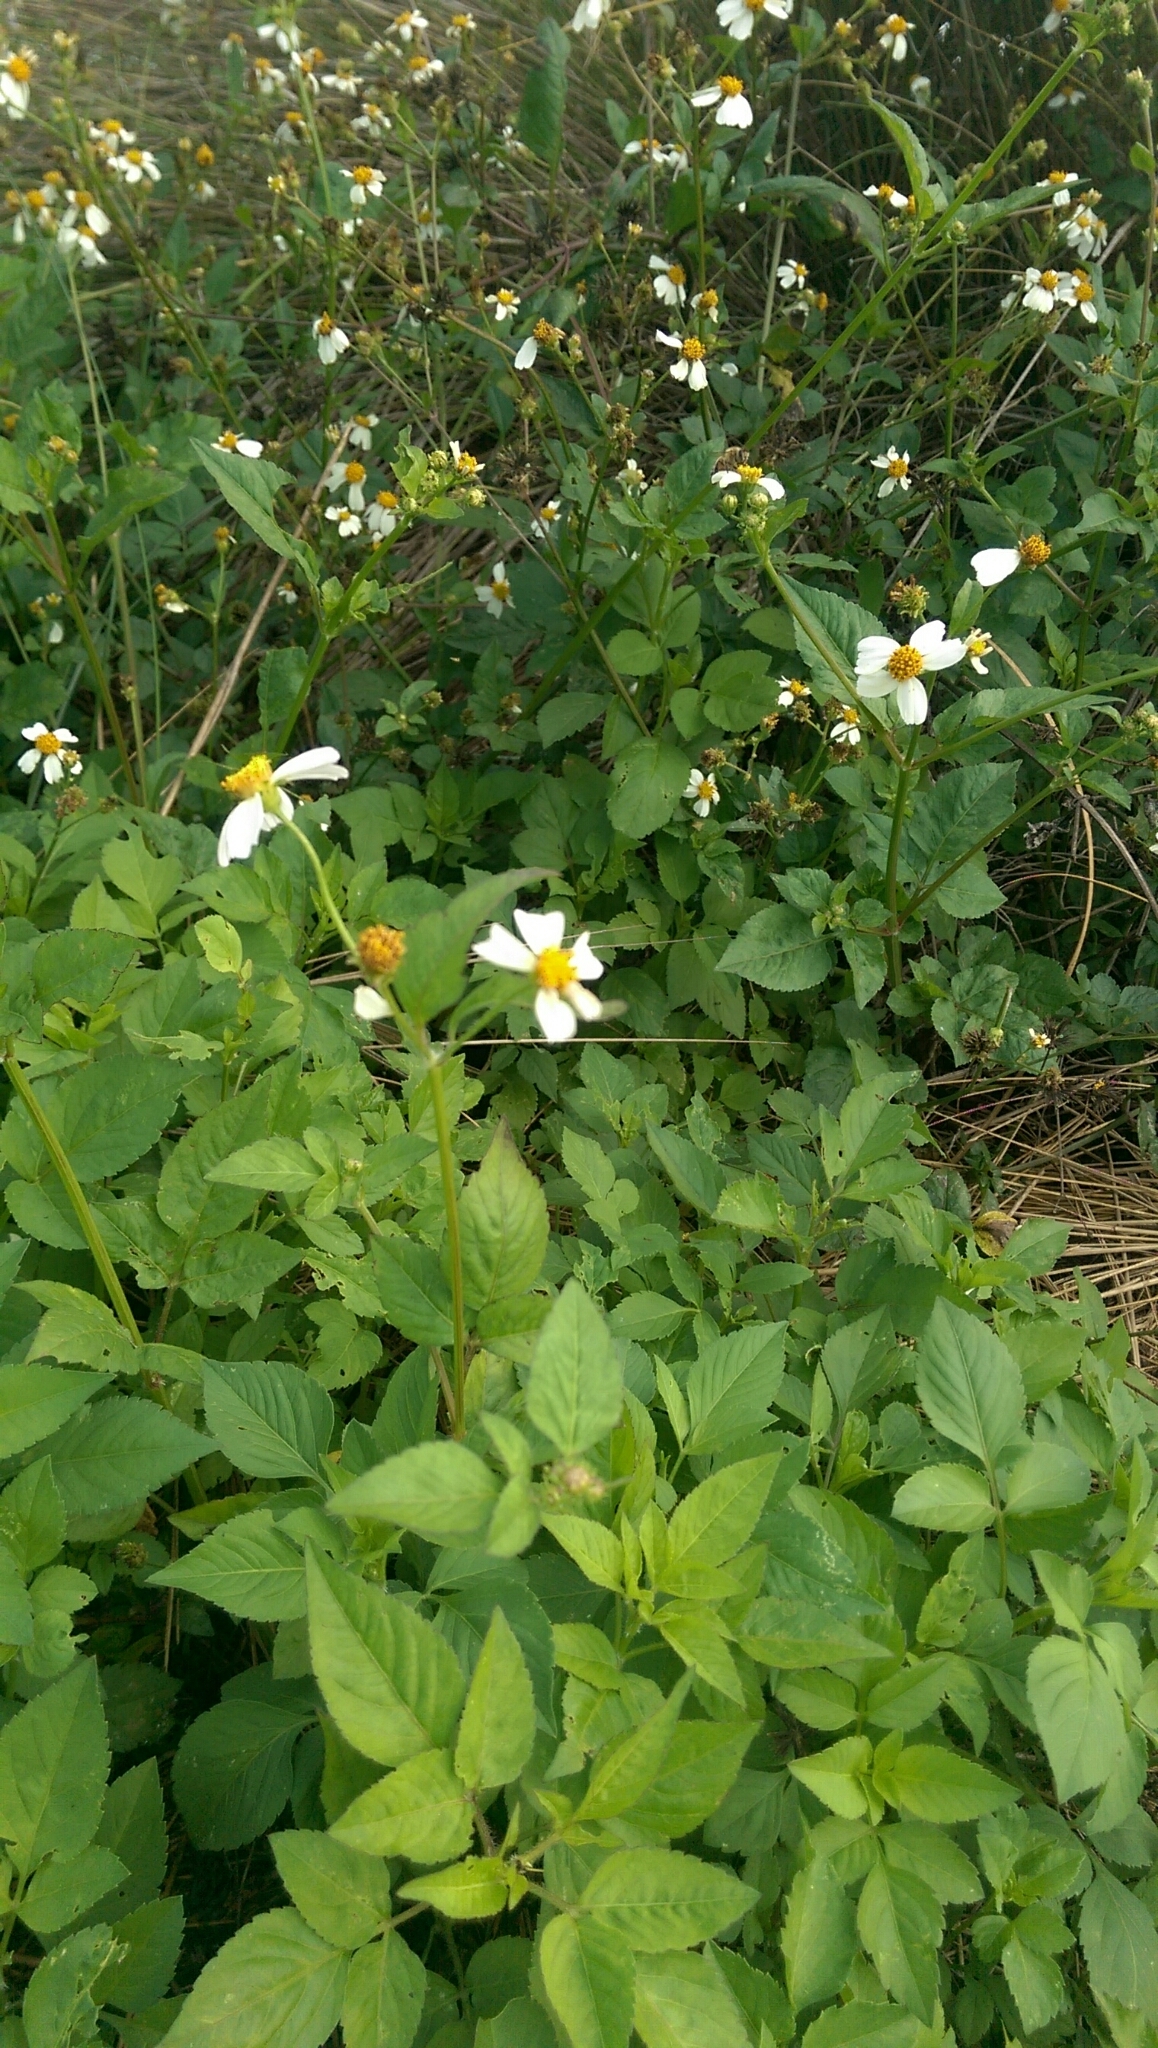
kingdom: Plantae
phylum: Tracheophyta
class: Magnoliopsida
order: Asterales
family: Asteraceae
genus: Bidens
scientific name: Bidens alba
